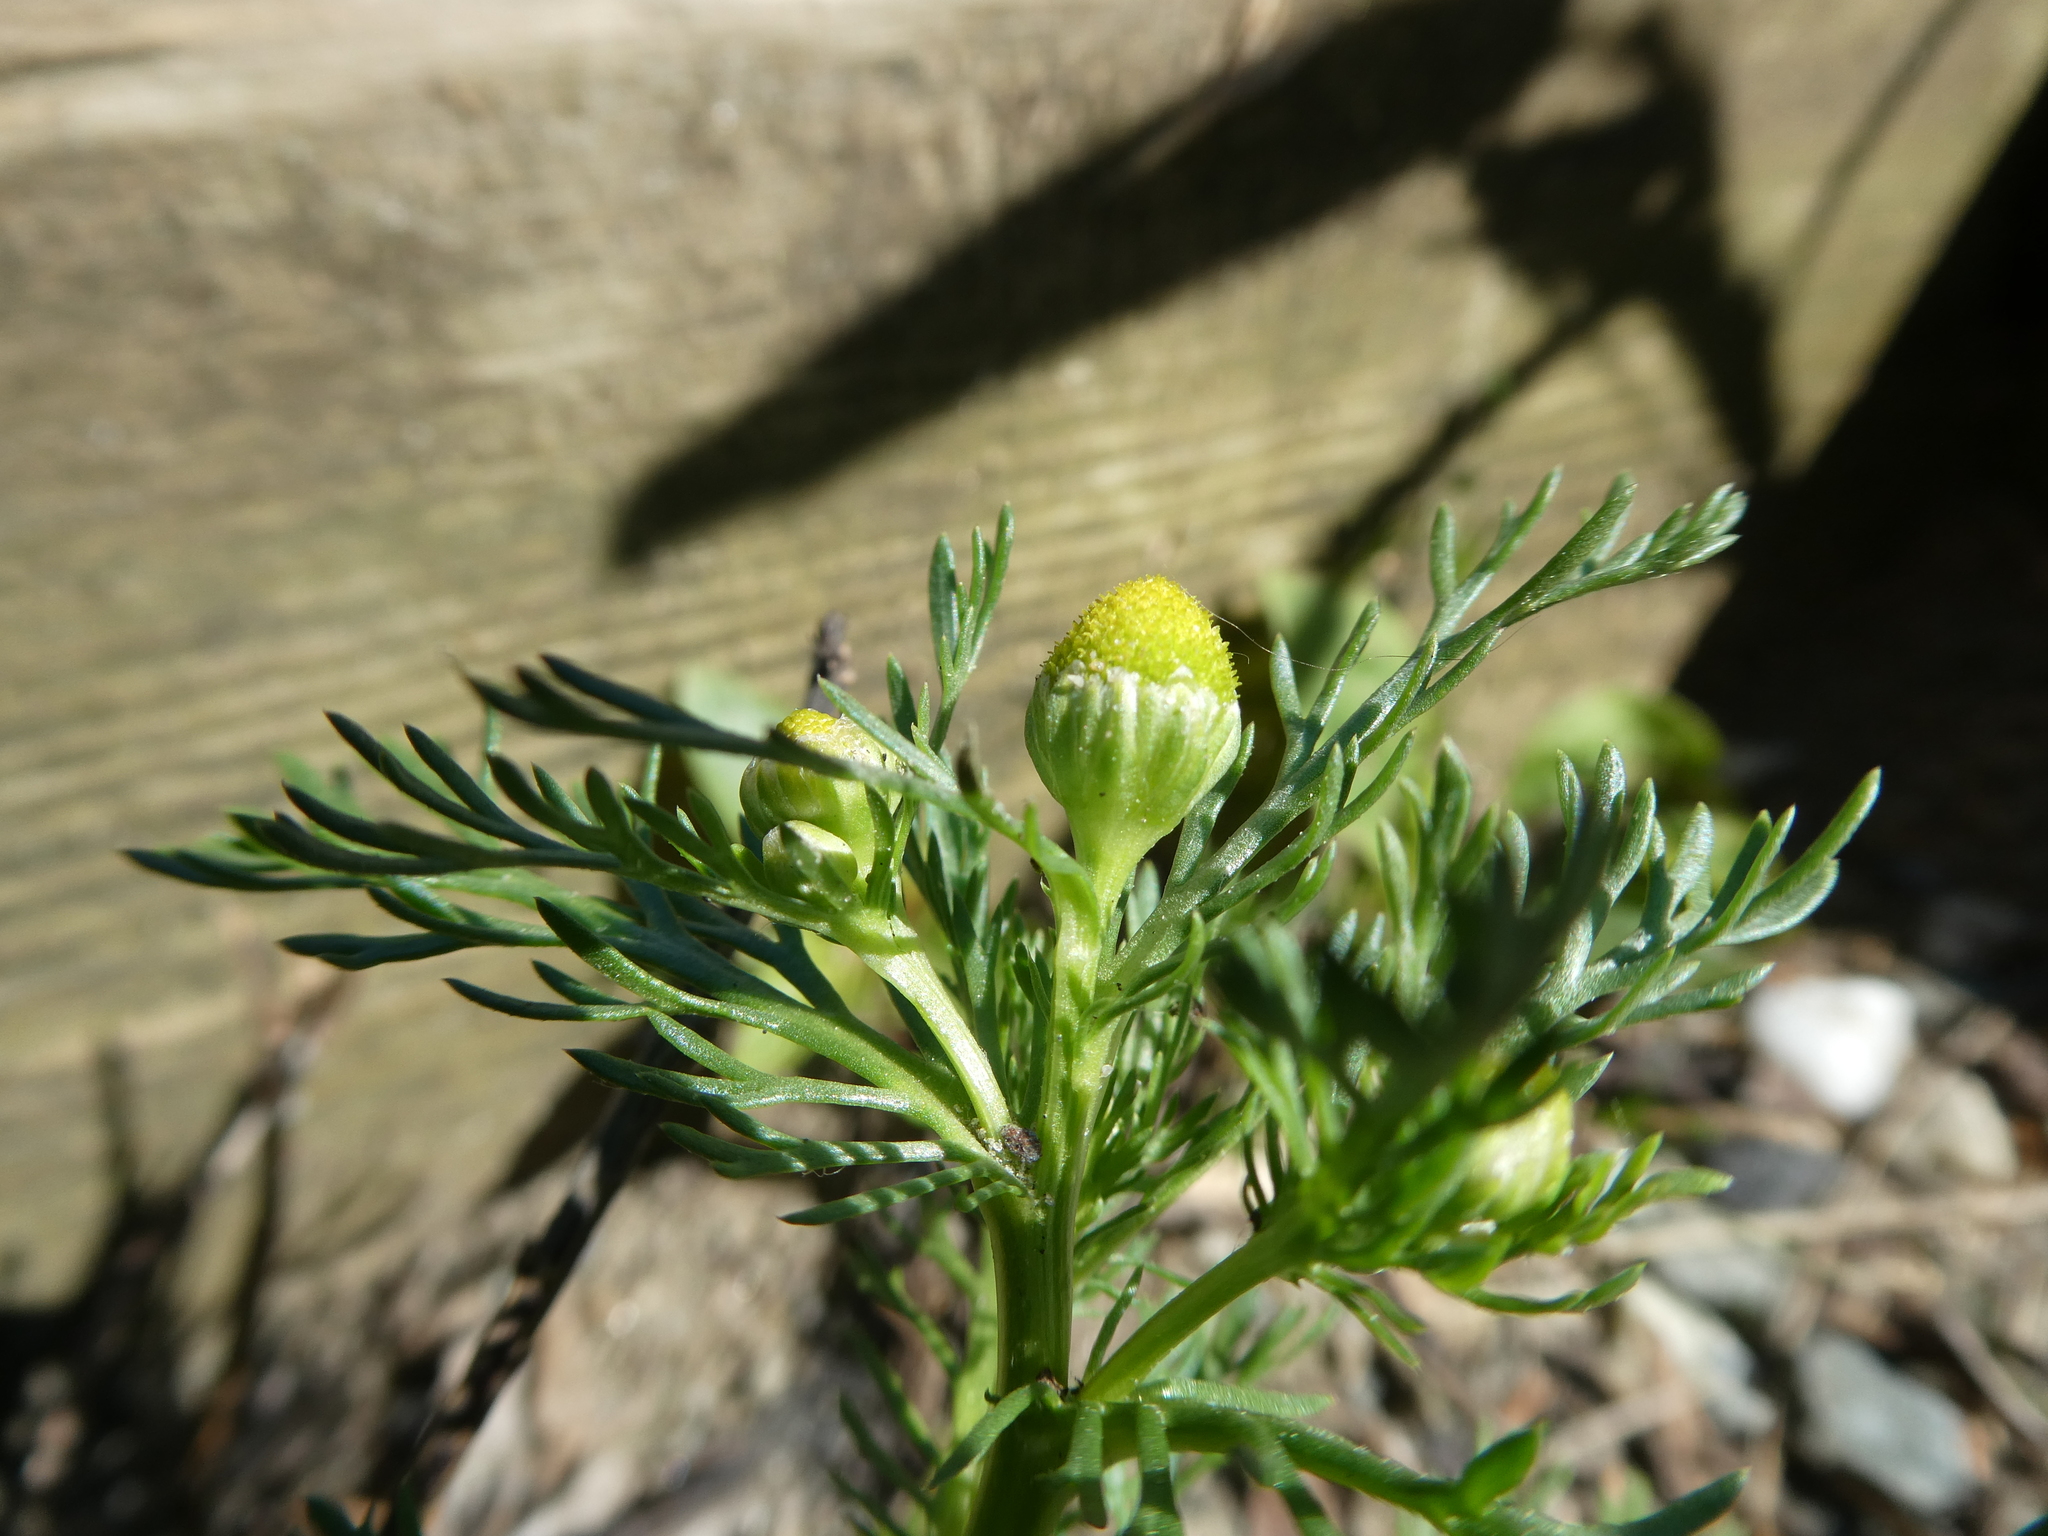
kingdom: Plantae
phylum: Tracheophyta
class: Magnoliopsida
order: Asterales
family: Asteraceae
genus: Matricaria
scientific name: Matricaria discoidea
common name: Disc mayweed
